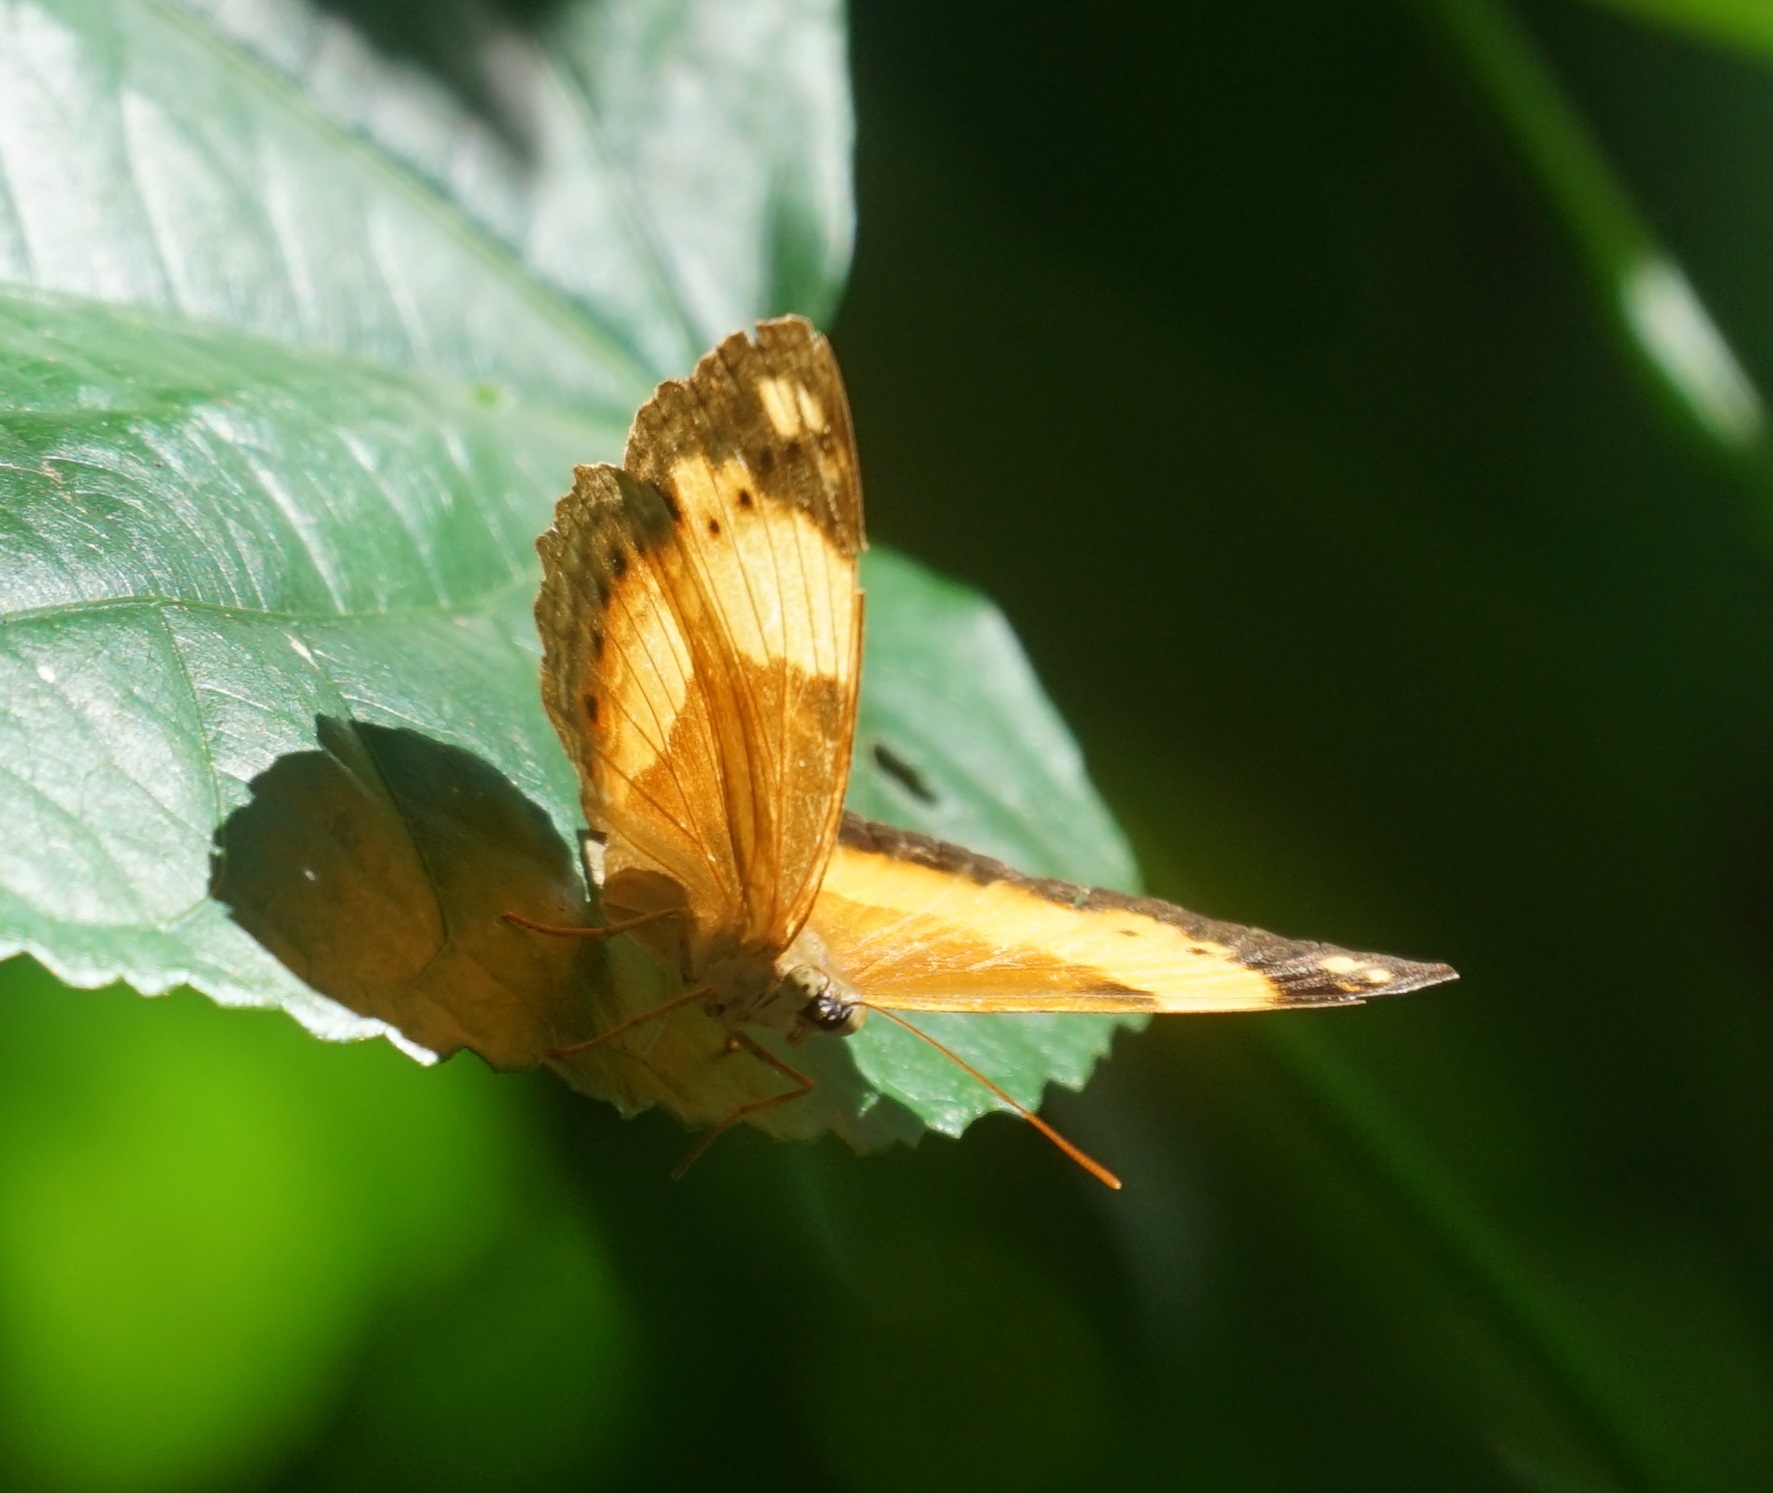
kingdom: Animalia
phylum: Arthropoda
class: Insecta
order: Lepidoptera
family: Nymphalidae
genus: Cupha
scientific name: Cupha prosope
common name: Bordered rustic
